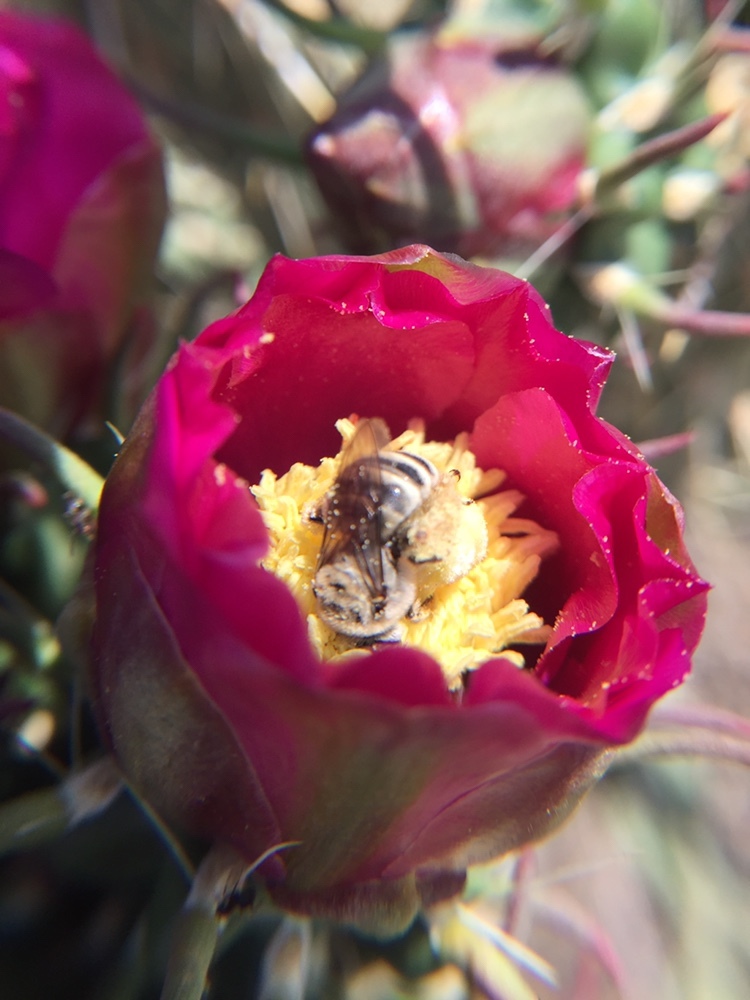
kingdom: Animalia
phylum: Arthropoda
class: Insecta
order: Hymenoptera
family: Apidae
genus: Diadasia
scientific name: Diadasia
